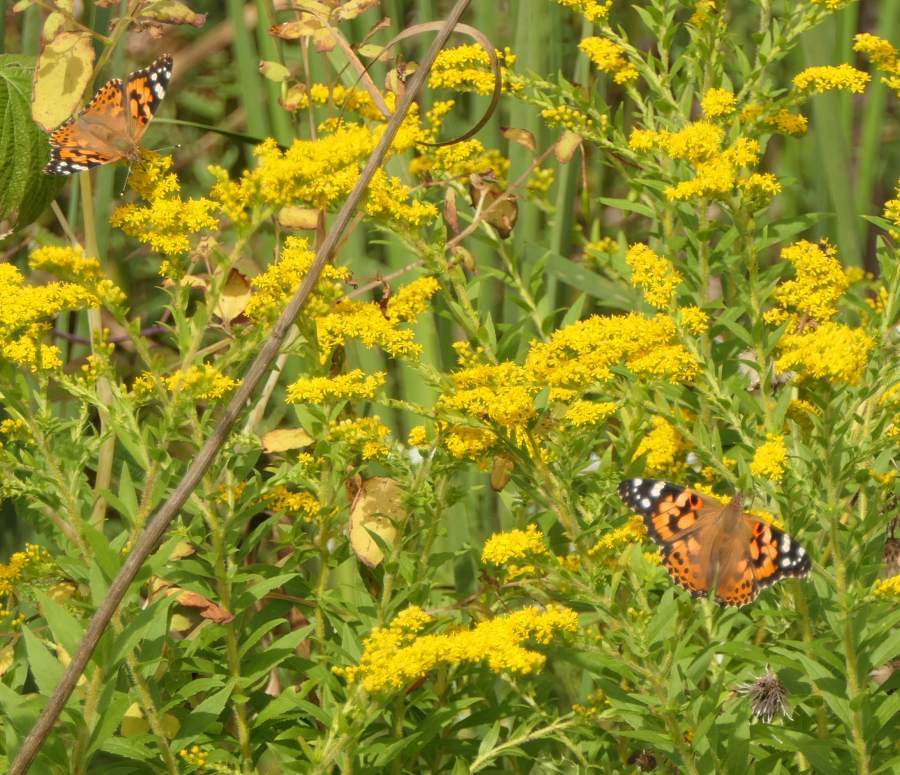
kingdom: Animalia
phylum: Arthropoda
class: Insecta
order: Lepidoptera
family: Nymphalidae
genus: Vanessa
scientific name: Vanessa cardui
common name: Painted lady
